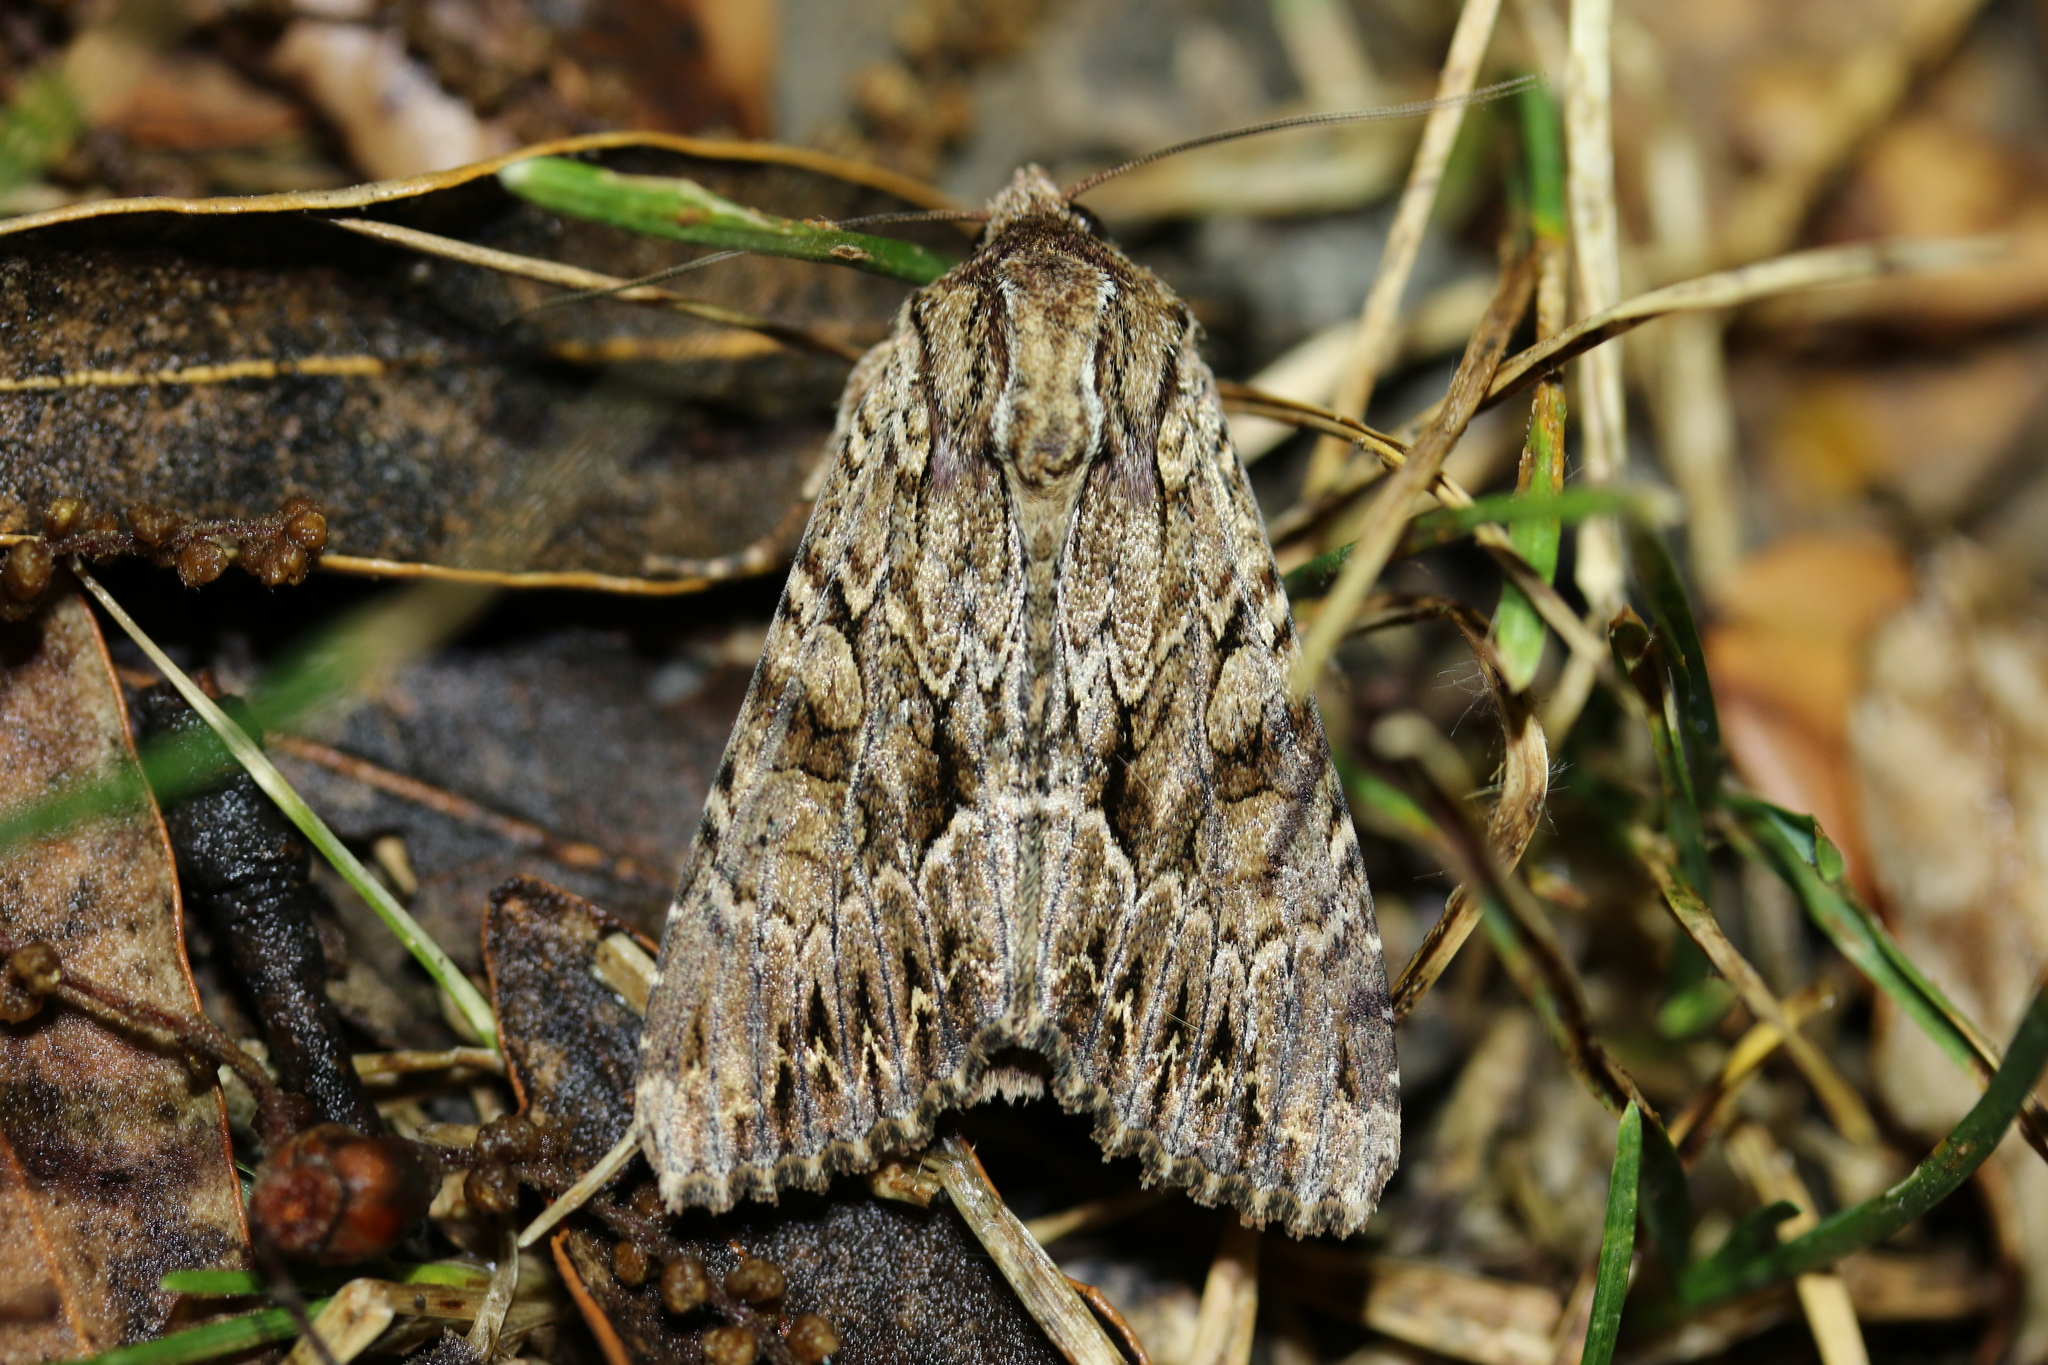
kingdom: Animalia
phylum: Arthropoda
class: Insecta
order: Lepidoptera
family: Noctuidae
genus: Apamea
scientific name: Apamea monoglypha
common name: Dark arches
